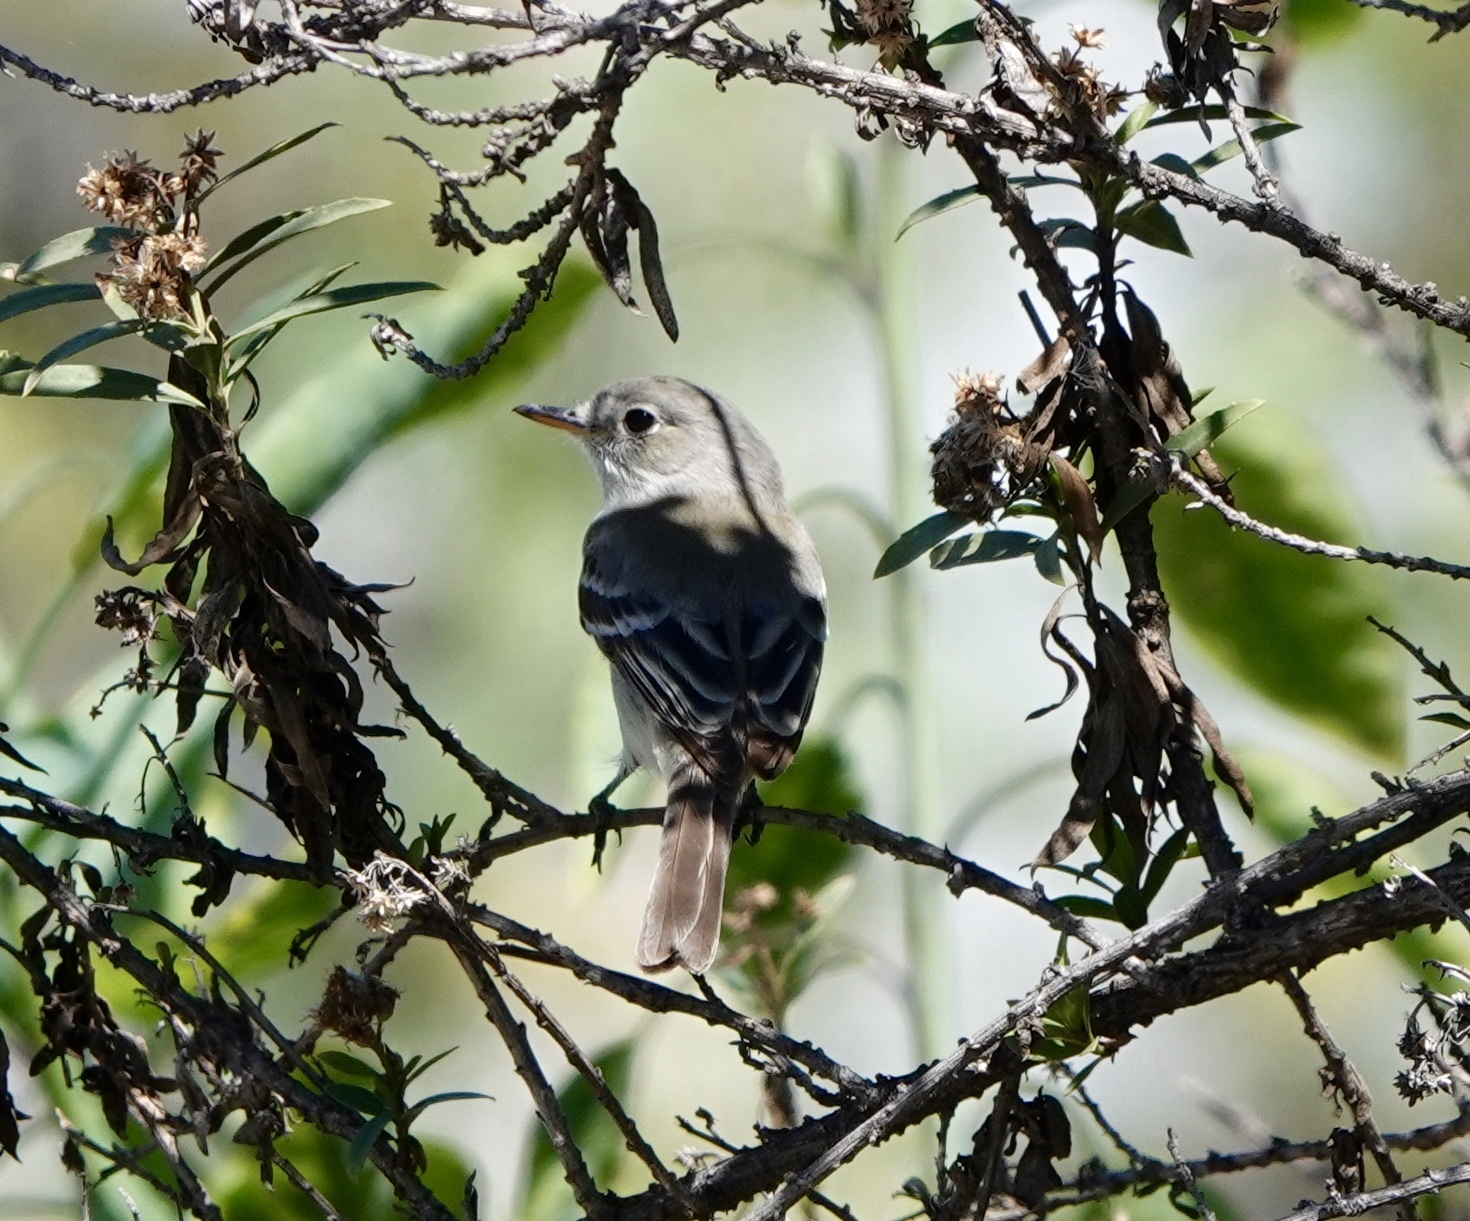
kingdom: Animalia
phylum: Chordata
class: Aves
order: Passeriformes
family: Tyrannidae
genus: Empidonax
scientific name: Empidonax wrightii
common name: Gray flycatcher
